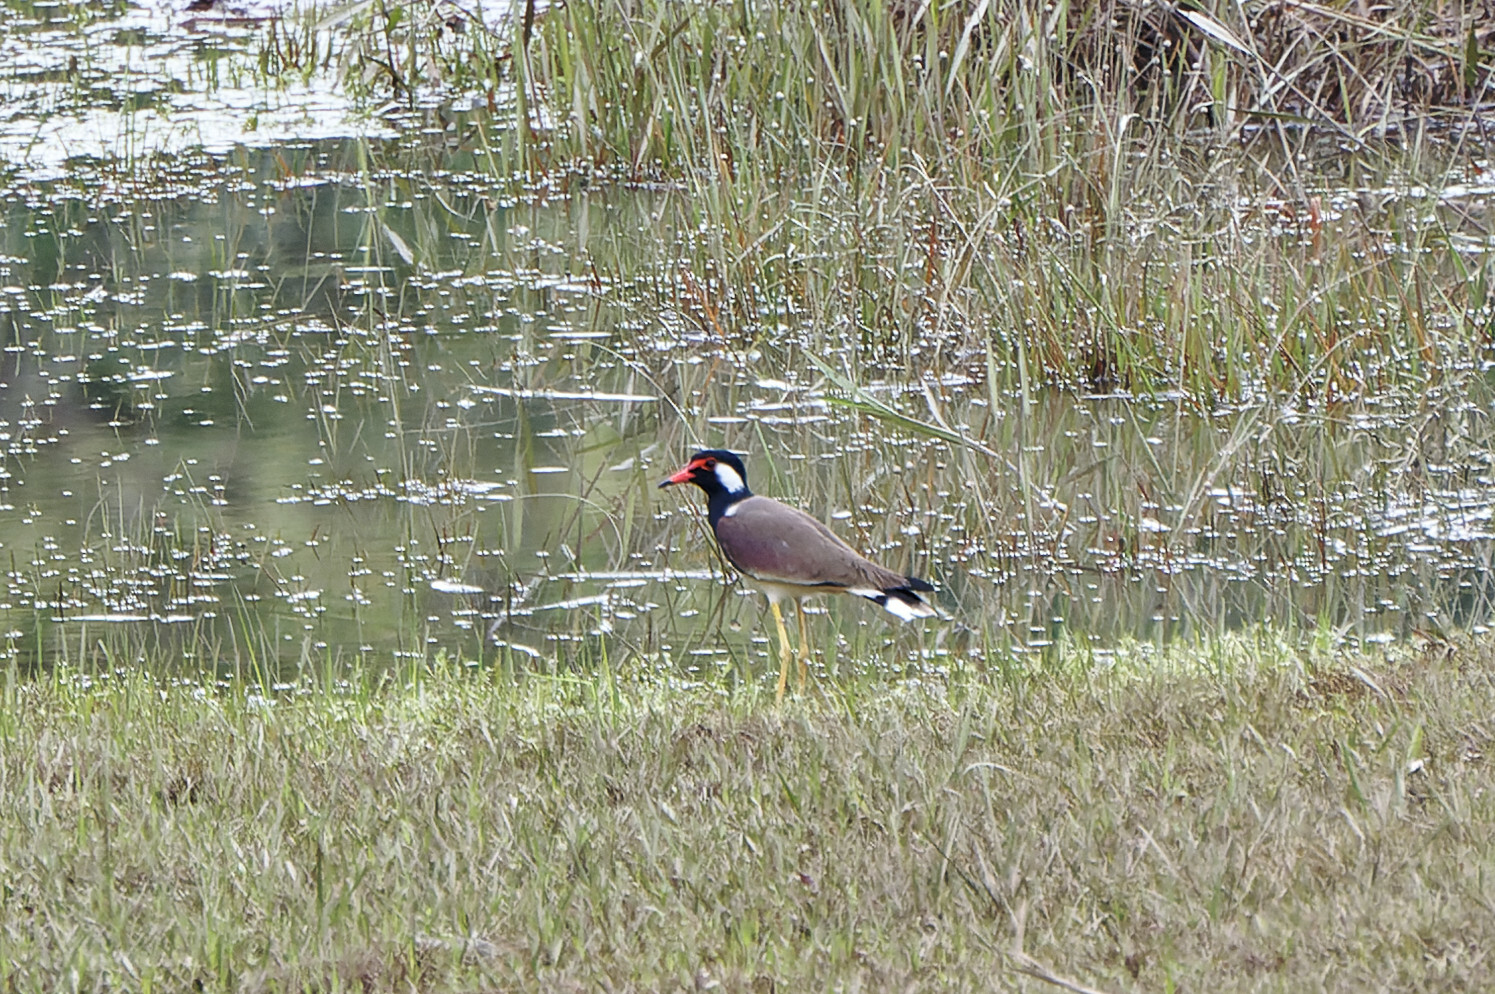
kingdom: Animalia
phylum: Chordata
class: Aves
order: Charadriiformes
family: Charadriidae
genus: Vanellus
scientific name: Vanellus indicus
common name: Red-wattled lapwing
